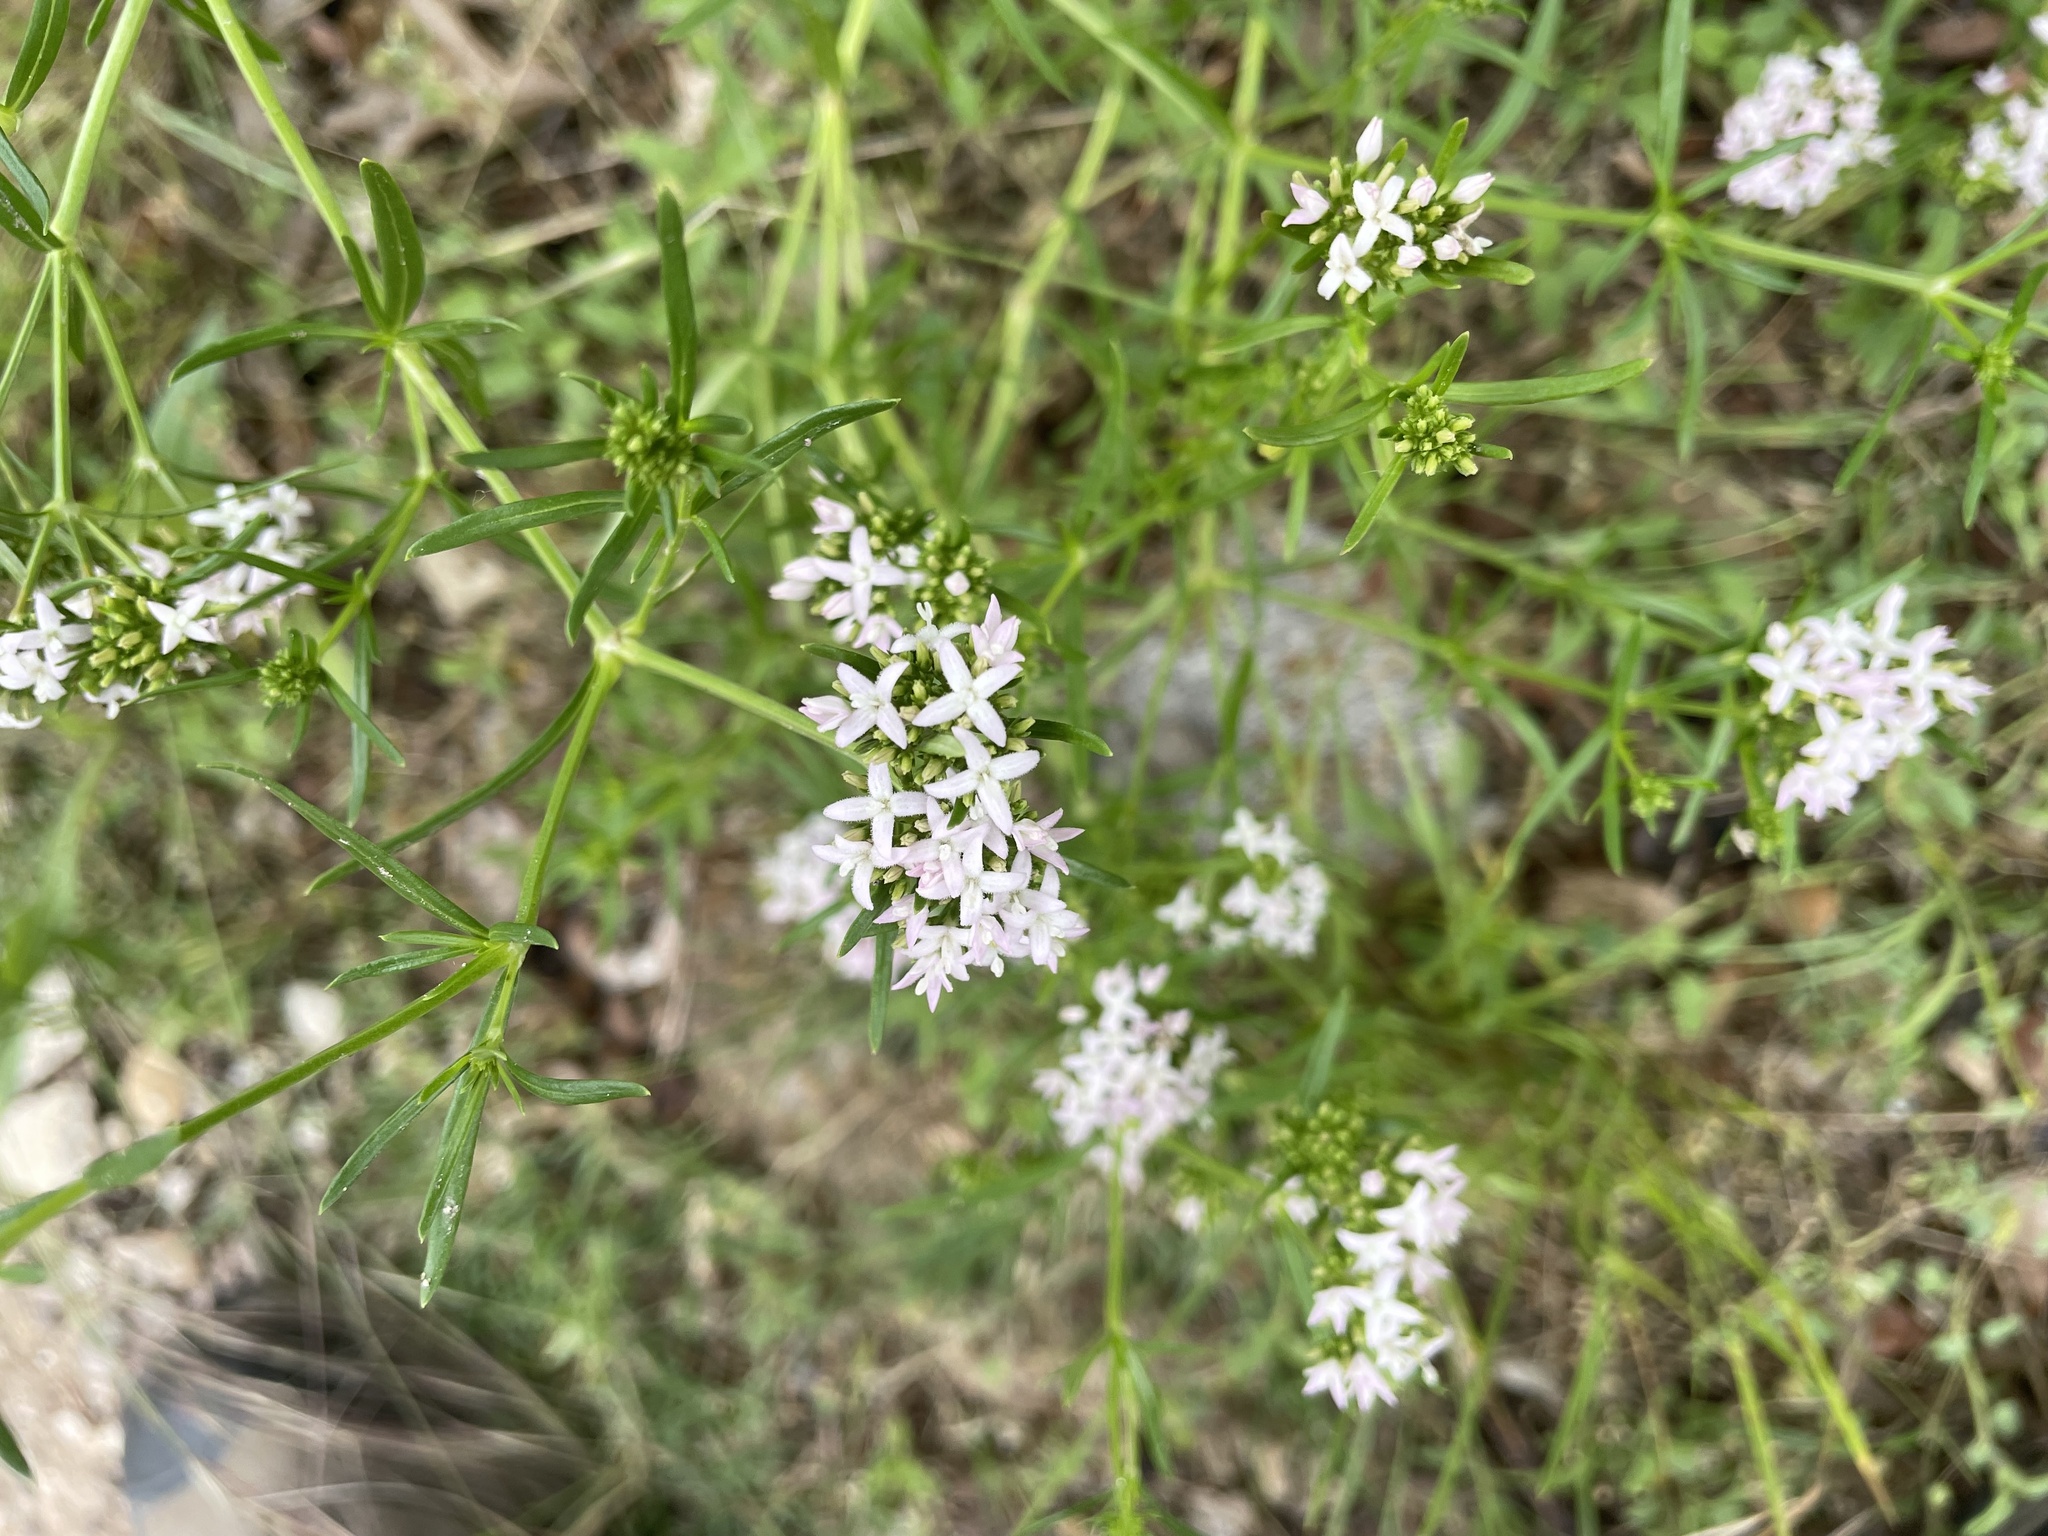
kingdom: Plantae
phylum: Tracheophyta
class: Magnoliopsida
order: Gentianales
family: Rubiaceae
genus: Stenaria
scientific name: Stenaria nigricans
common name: Diamondflowers
